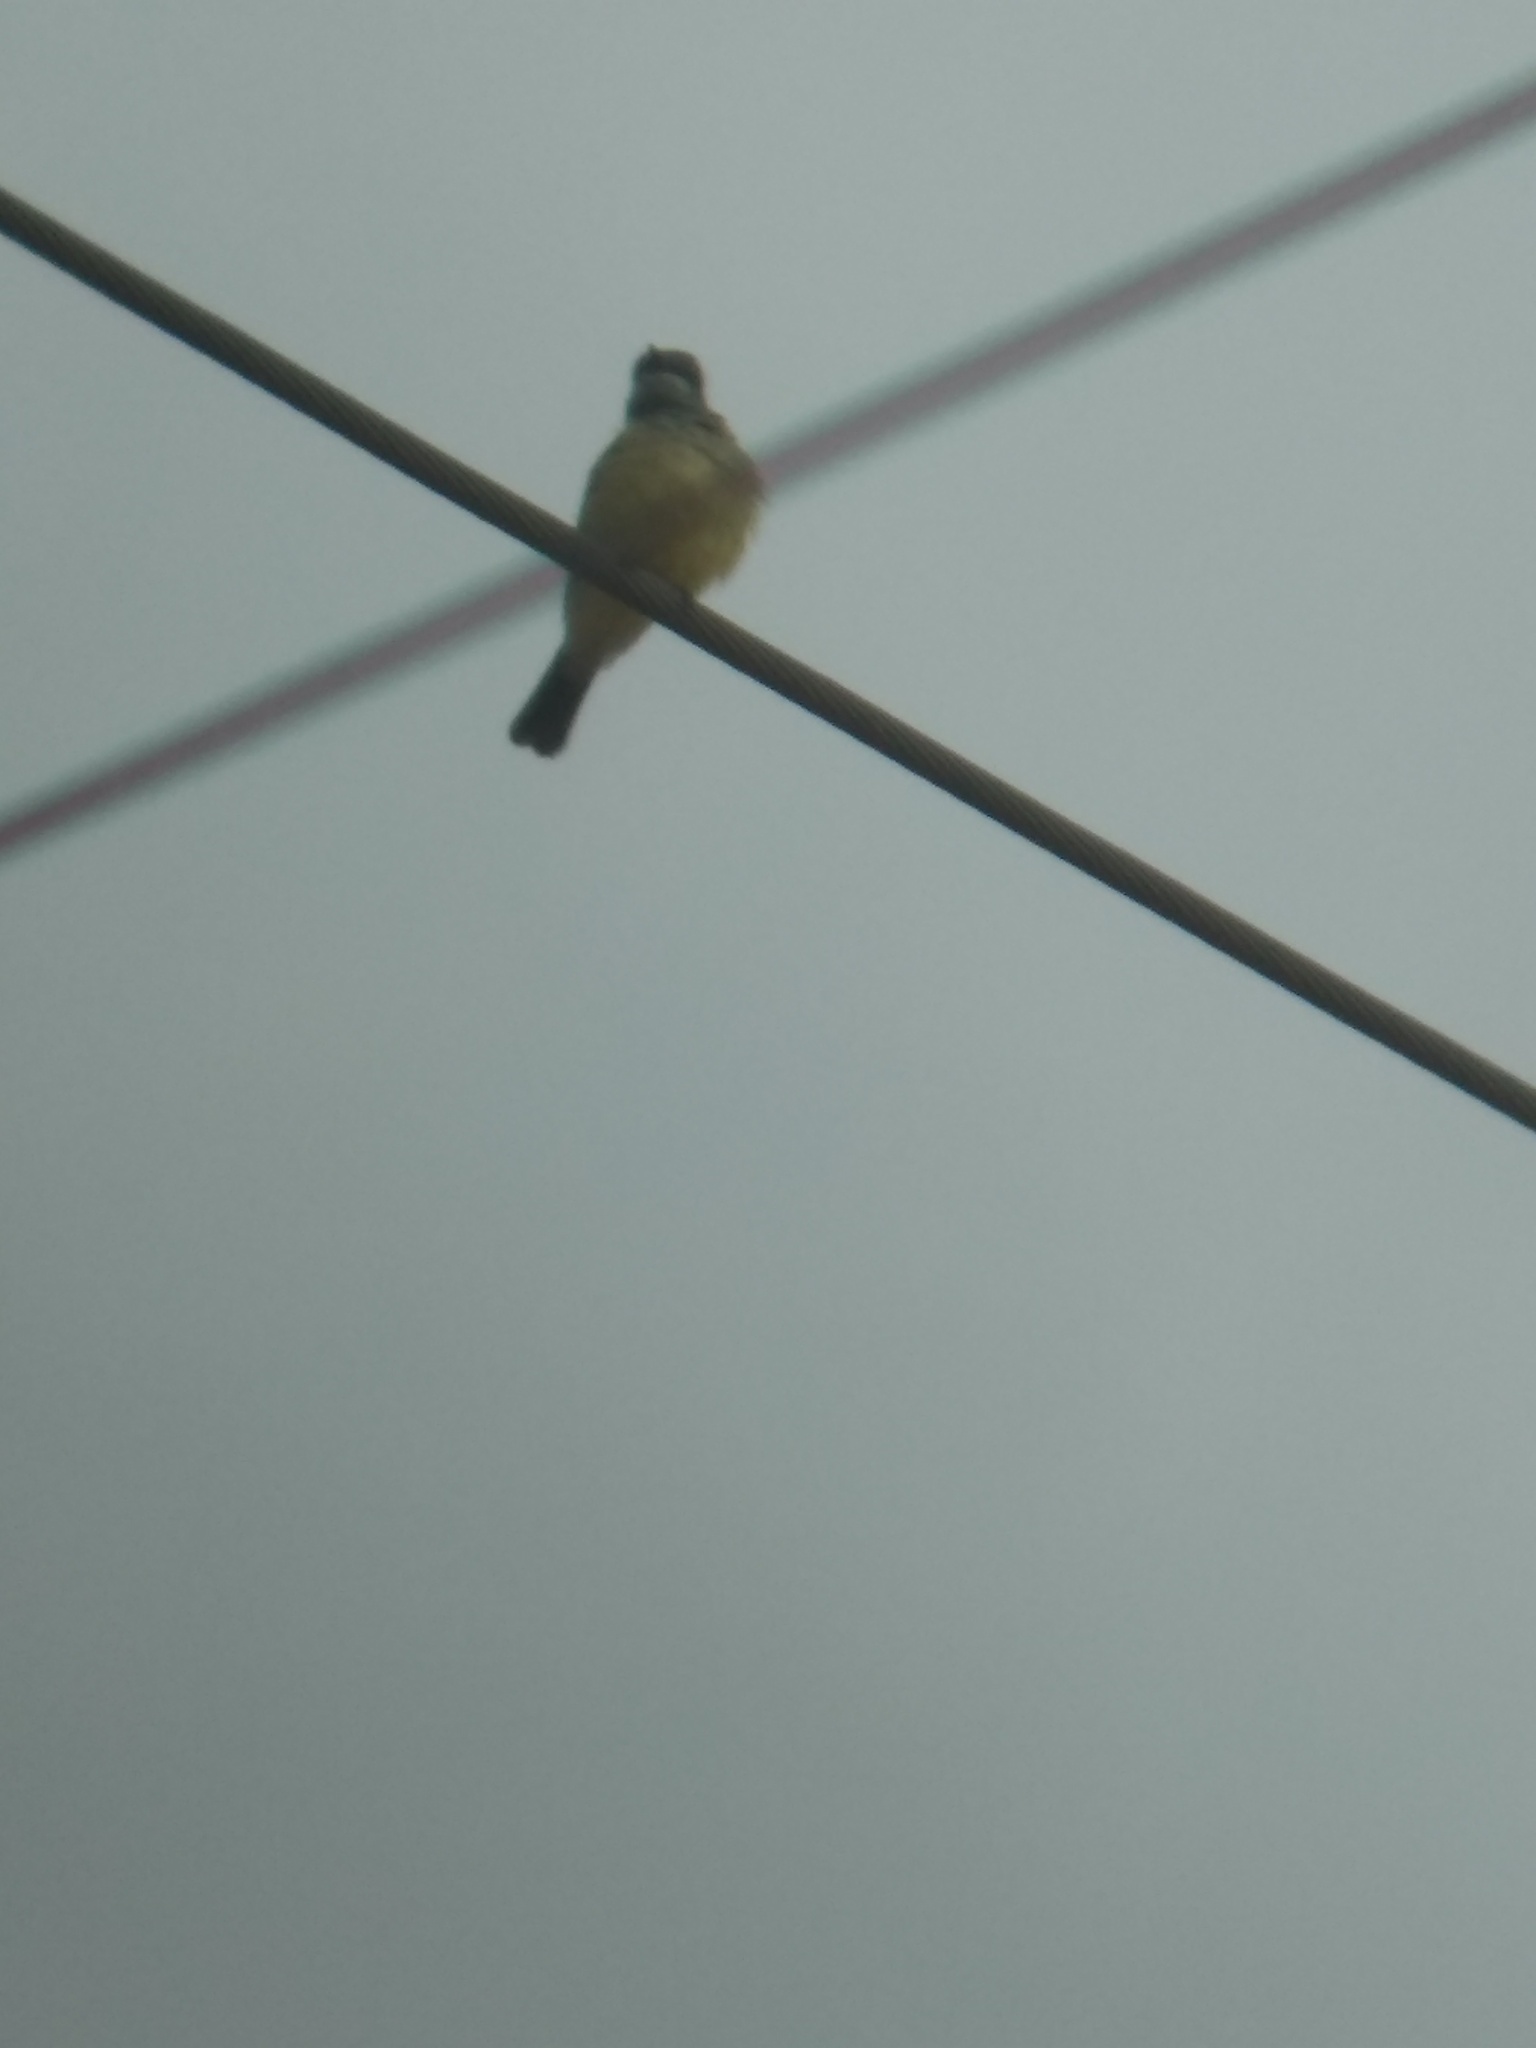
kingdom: Animalia
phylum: Chordata
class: Aves
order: Passeriformes
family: Tyrannidae
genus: Tyrannus
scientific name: Tyrannus vociferans
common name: Cassin's kingbird
